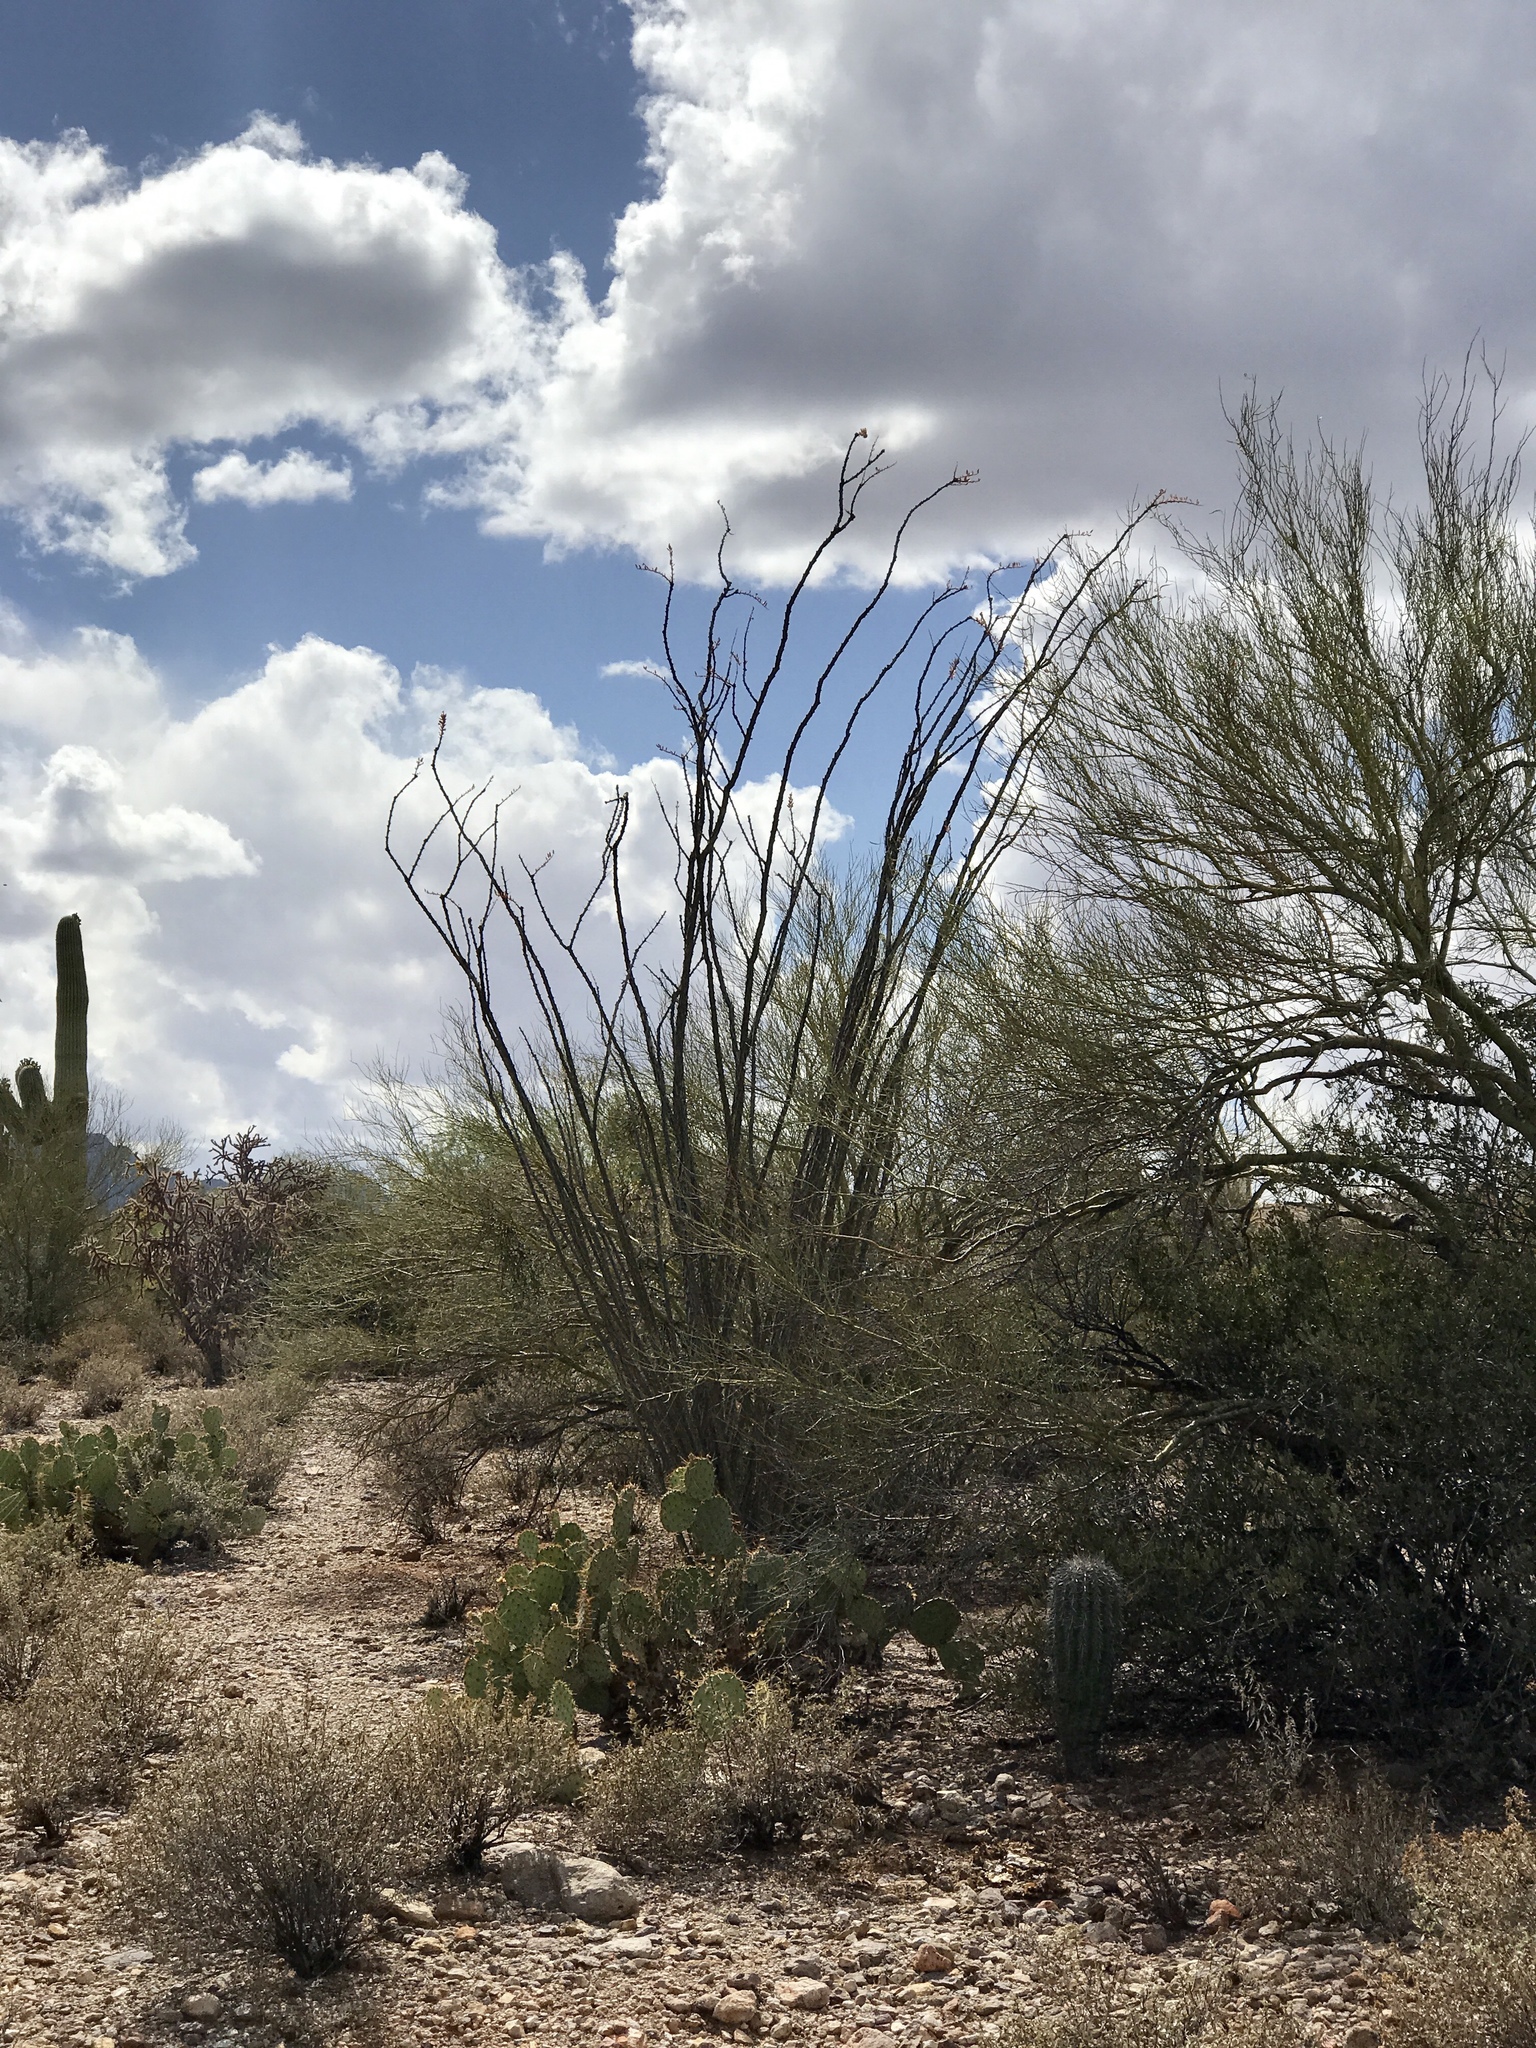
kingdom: Plantae
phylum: Tracheophyta
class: Magnoliopsida
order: Ericales
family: Fouquieriaceae
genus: Fouquieria
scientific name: Fouquieria splendens
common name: Vine-cactus
